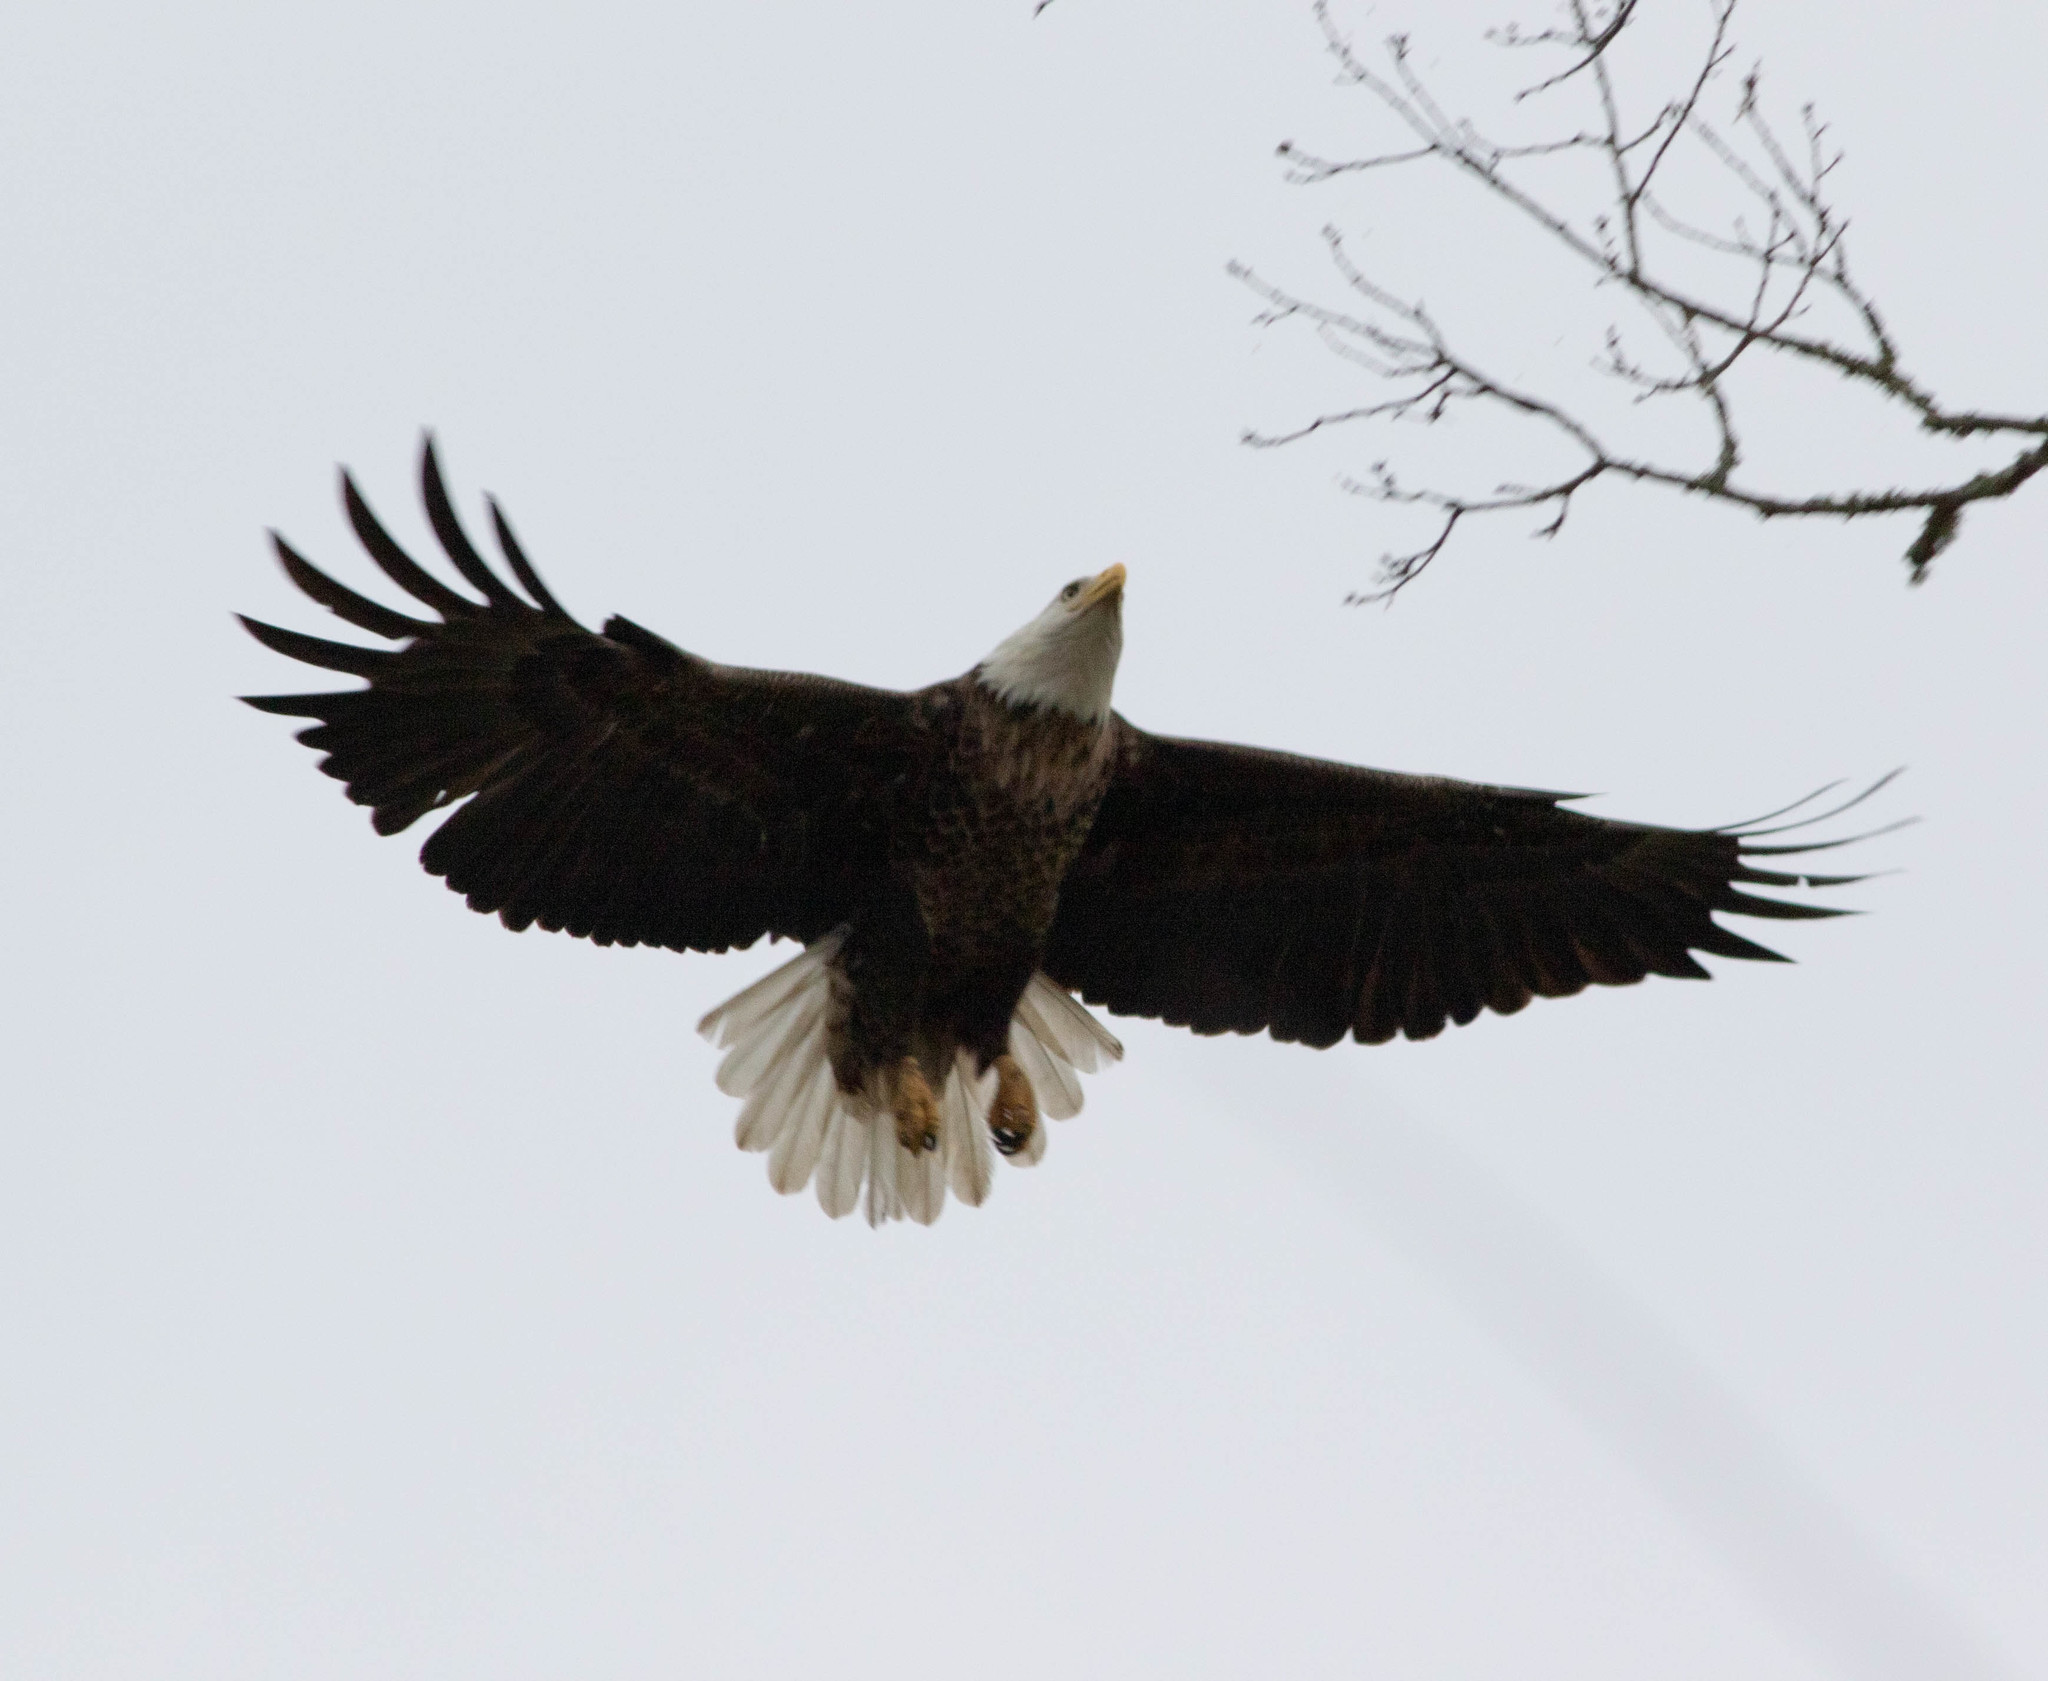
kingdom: Animalia
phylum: Chordata
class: Aves
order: Accipitriformes
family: Accipitridae
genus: Haliaeetus
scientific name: Haliaeetus leucocephalus
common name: Bald eagle
